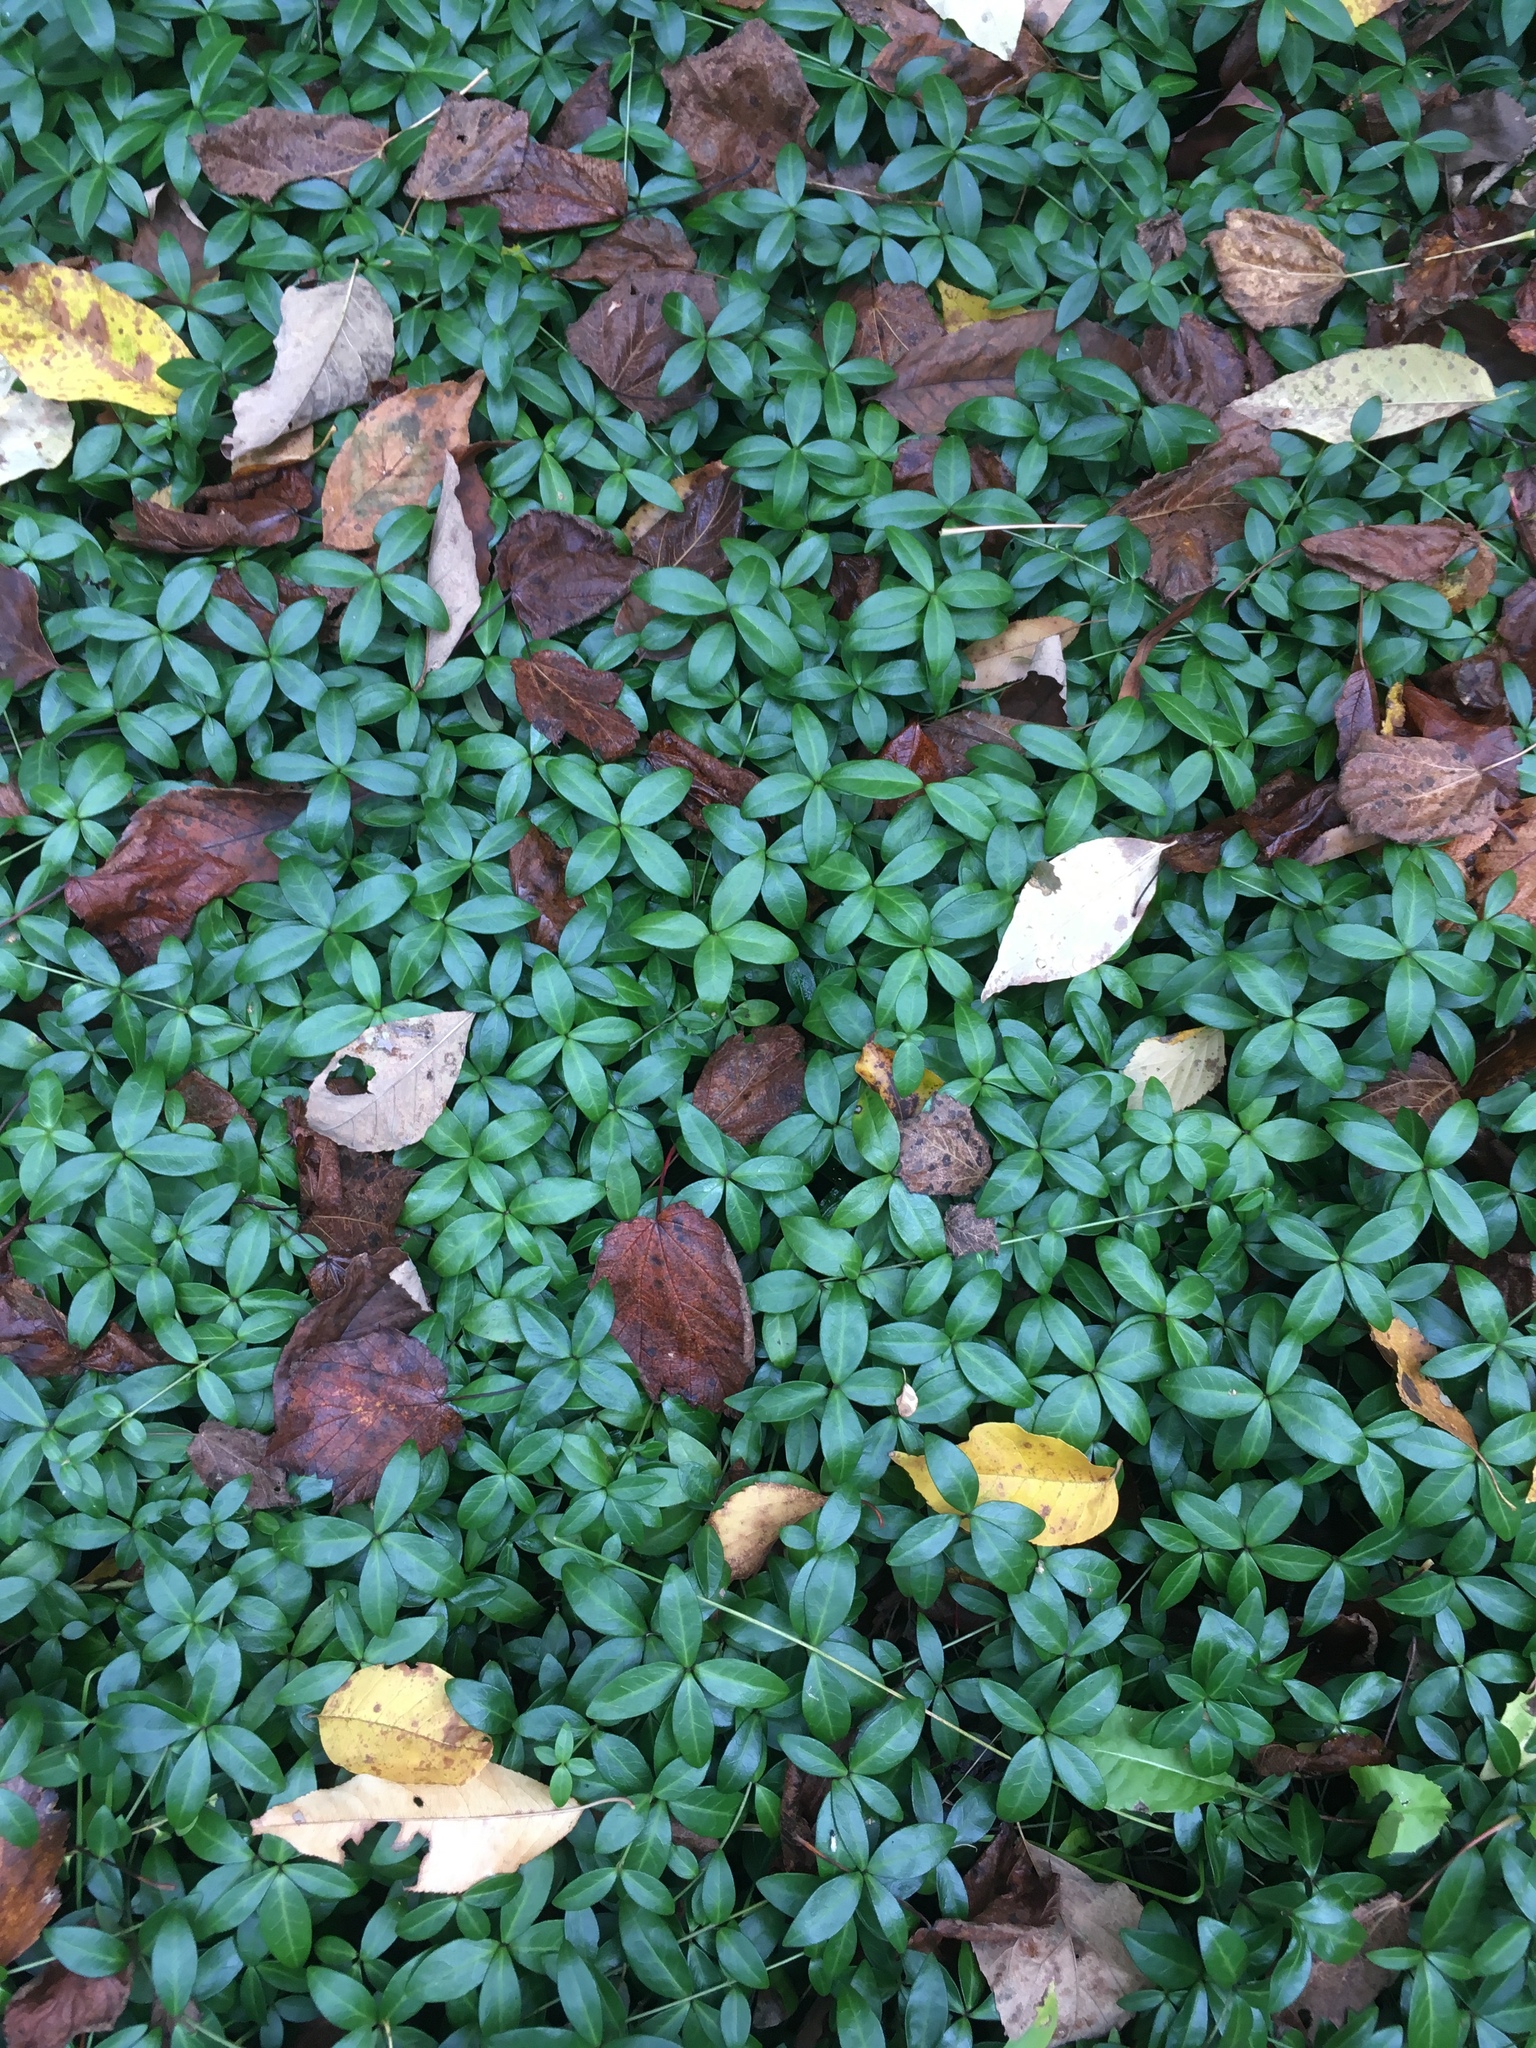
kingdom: Plantae
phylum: Tracheophyta
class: Magnoliopsida
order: Gentianales
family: Apocynaceae
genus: Vinca
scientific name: Vinca minor
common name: Lesser periwinkle
